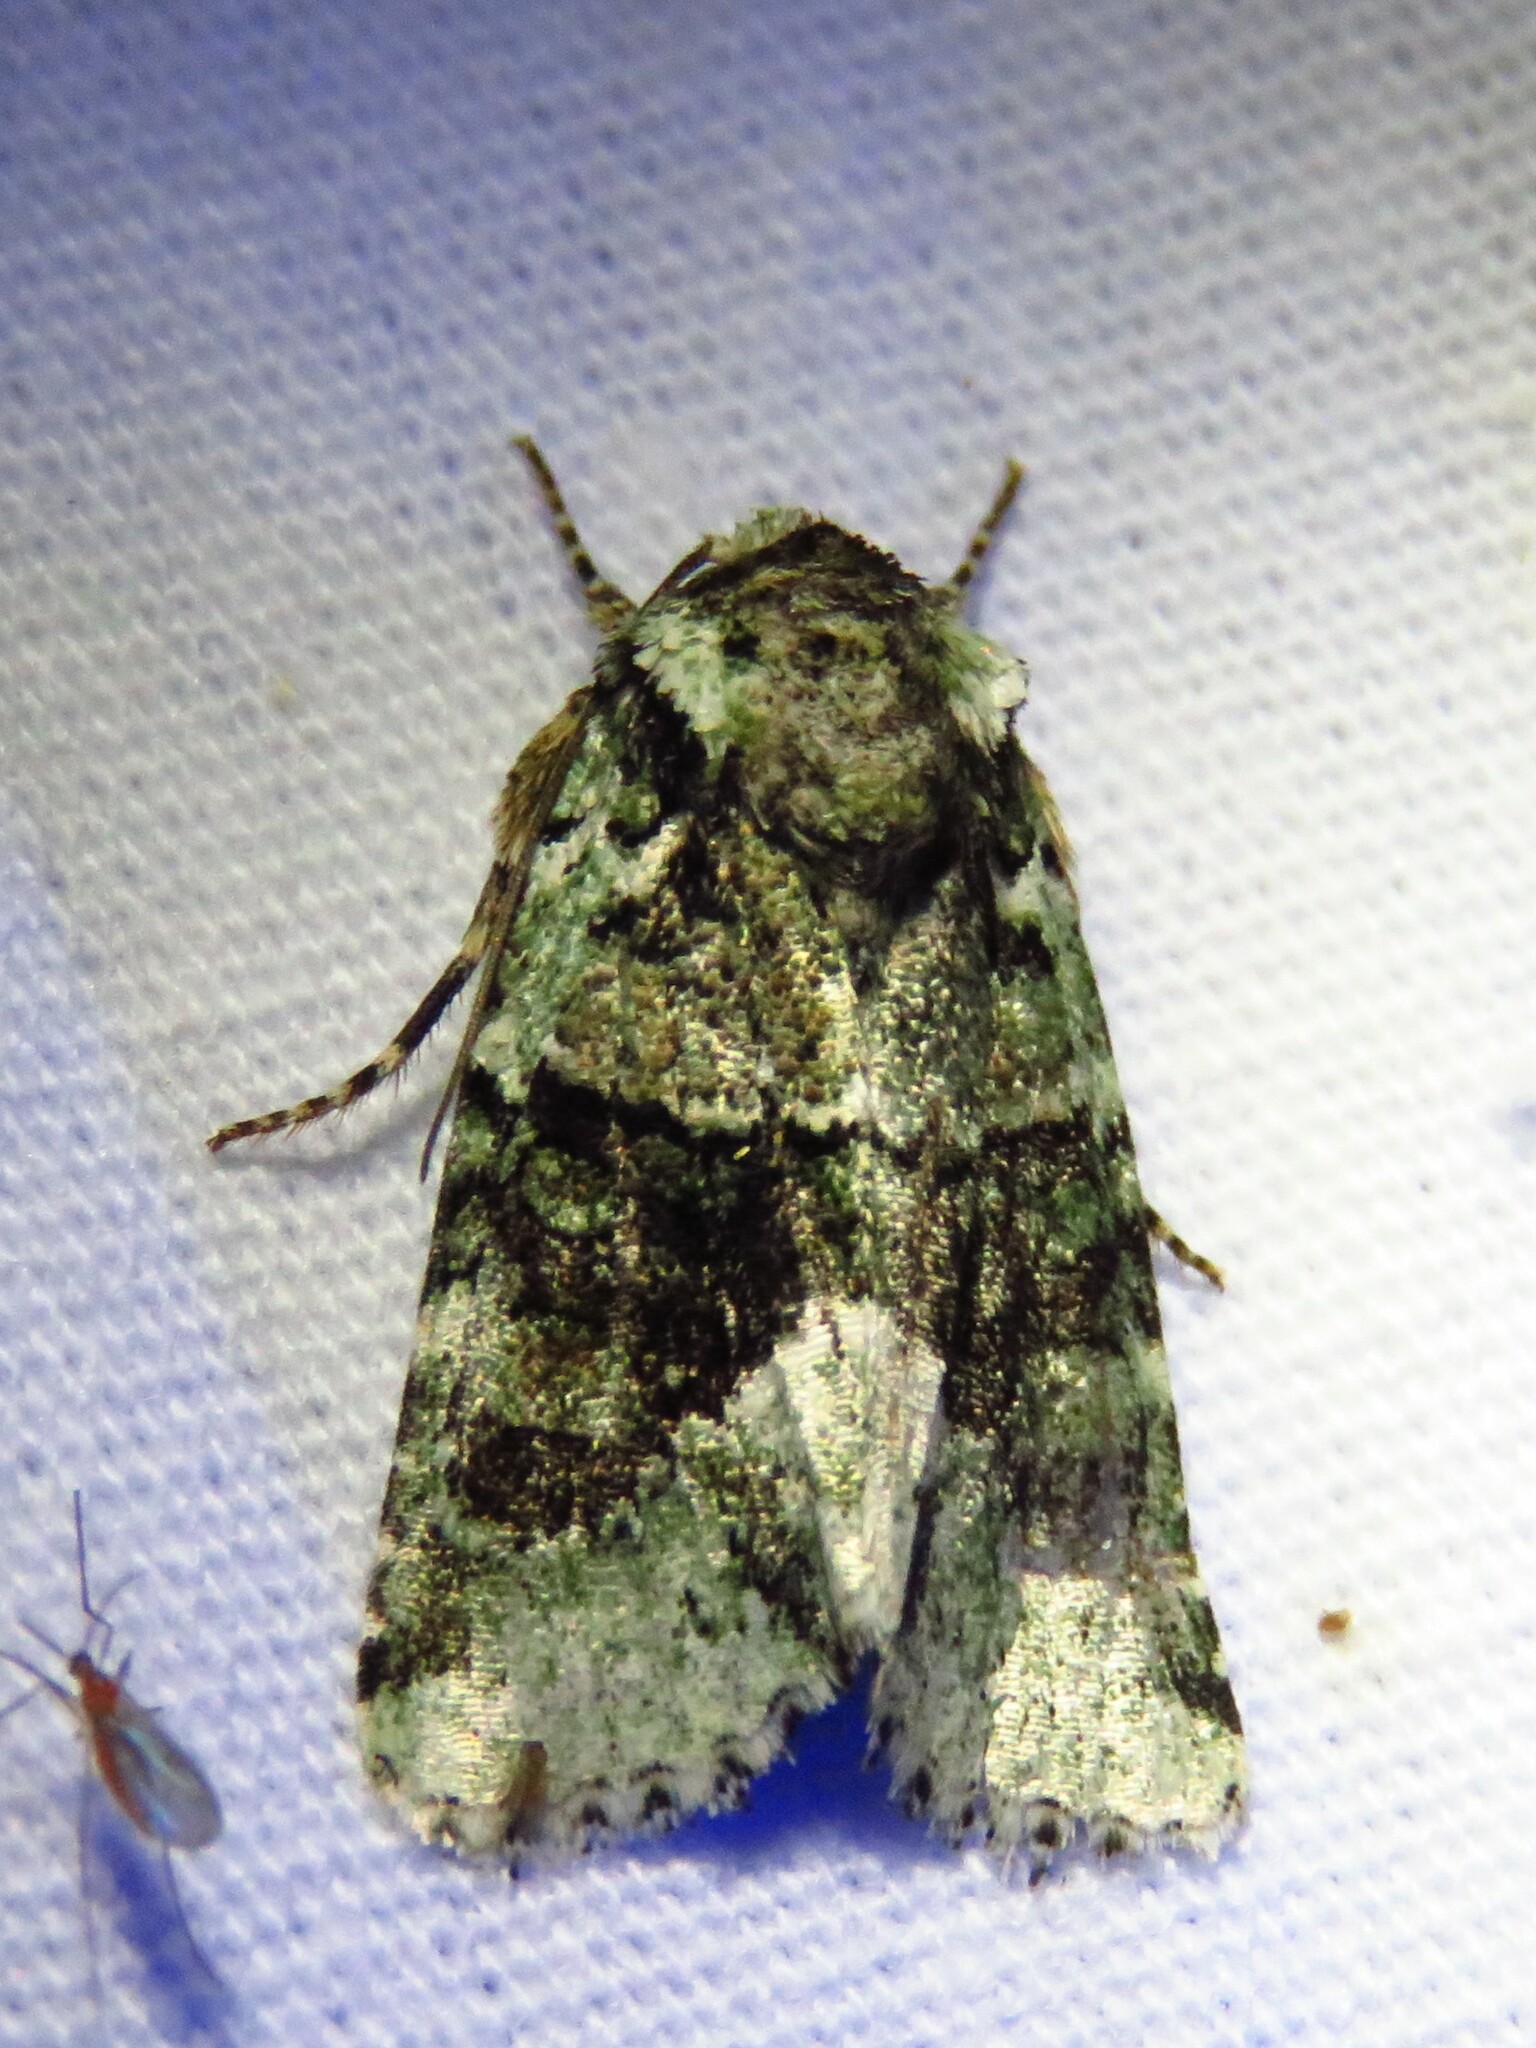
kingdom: Animalia
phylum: Arthropoda
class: Insecta
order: Lepidoptera
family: Noctuidae
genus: Lacinipolia
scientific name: Lacinipolia explicata
